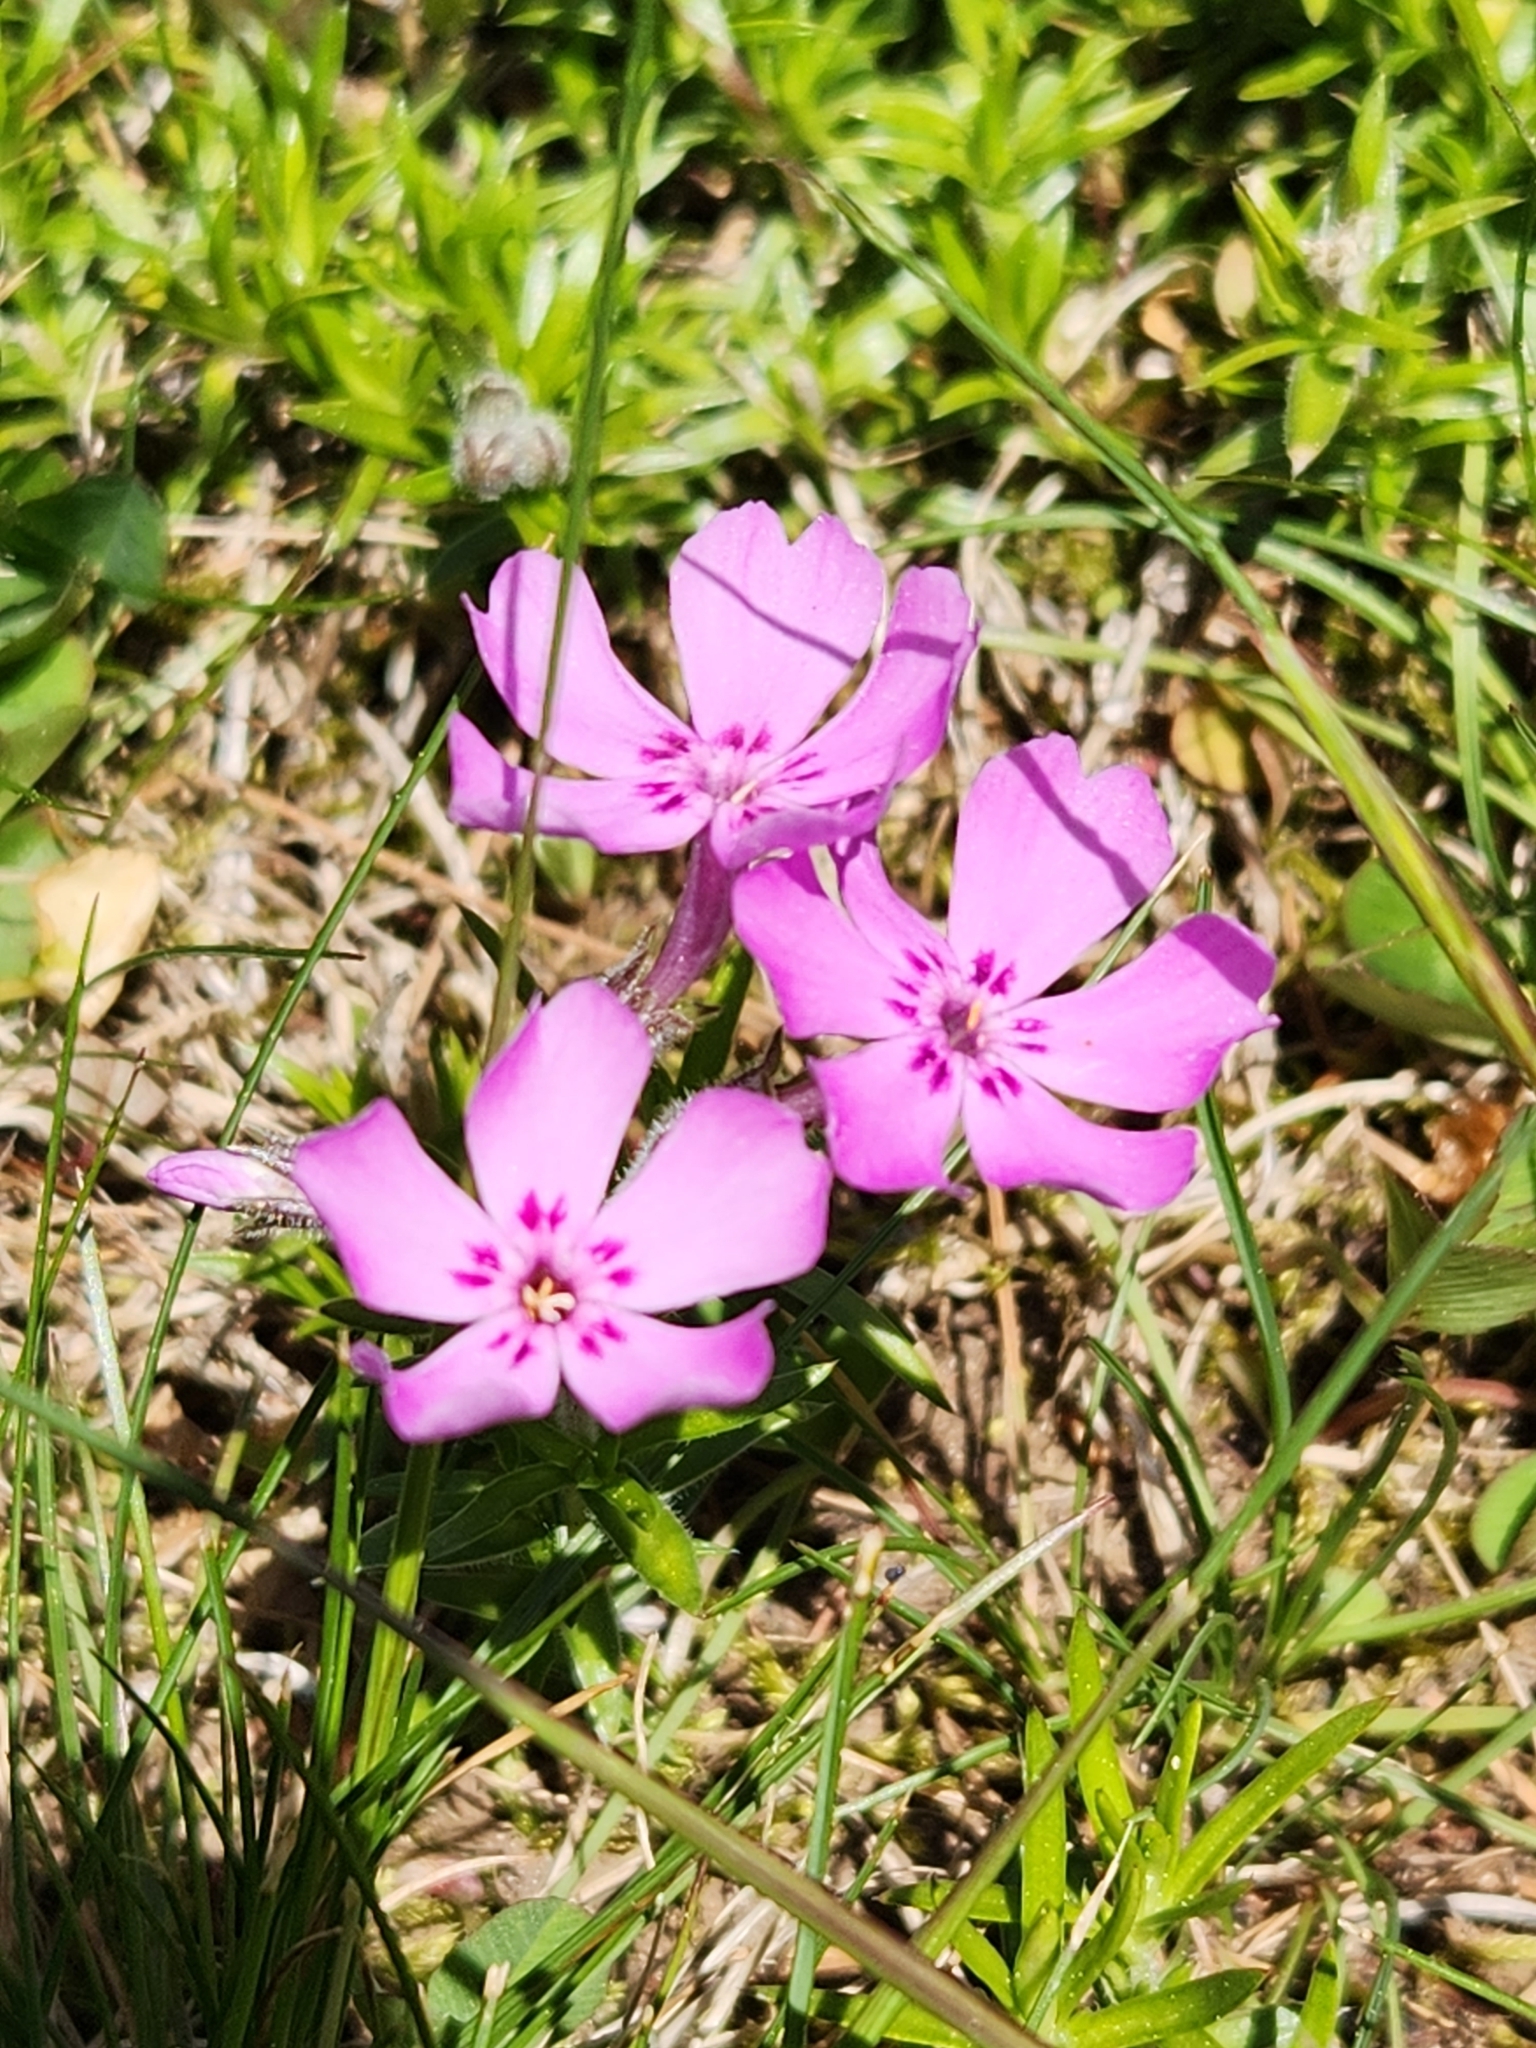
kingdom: Plantae
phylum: Tracheophyta
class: Magnoliopsida
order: Ericales
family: Polemoniaceae
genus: Phlox
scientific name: Phlox subulata
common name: Moss phlox
